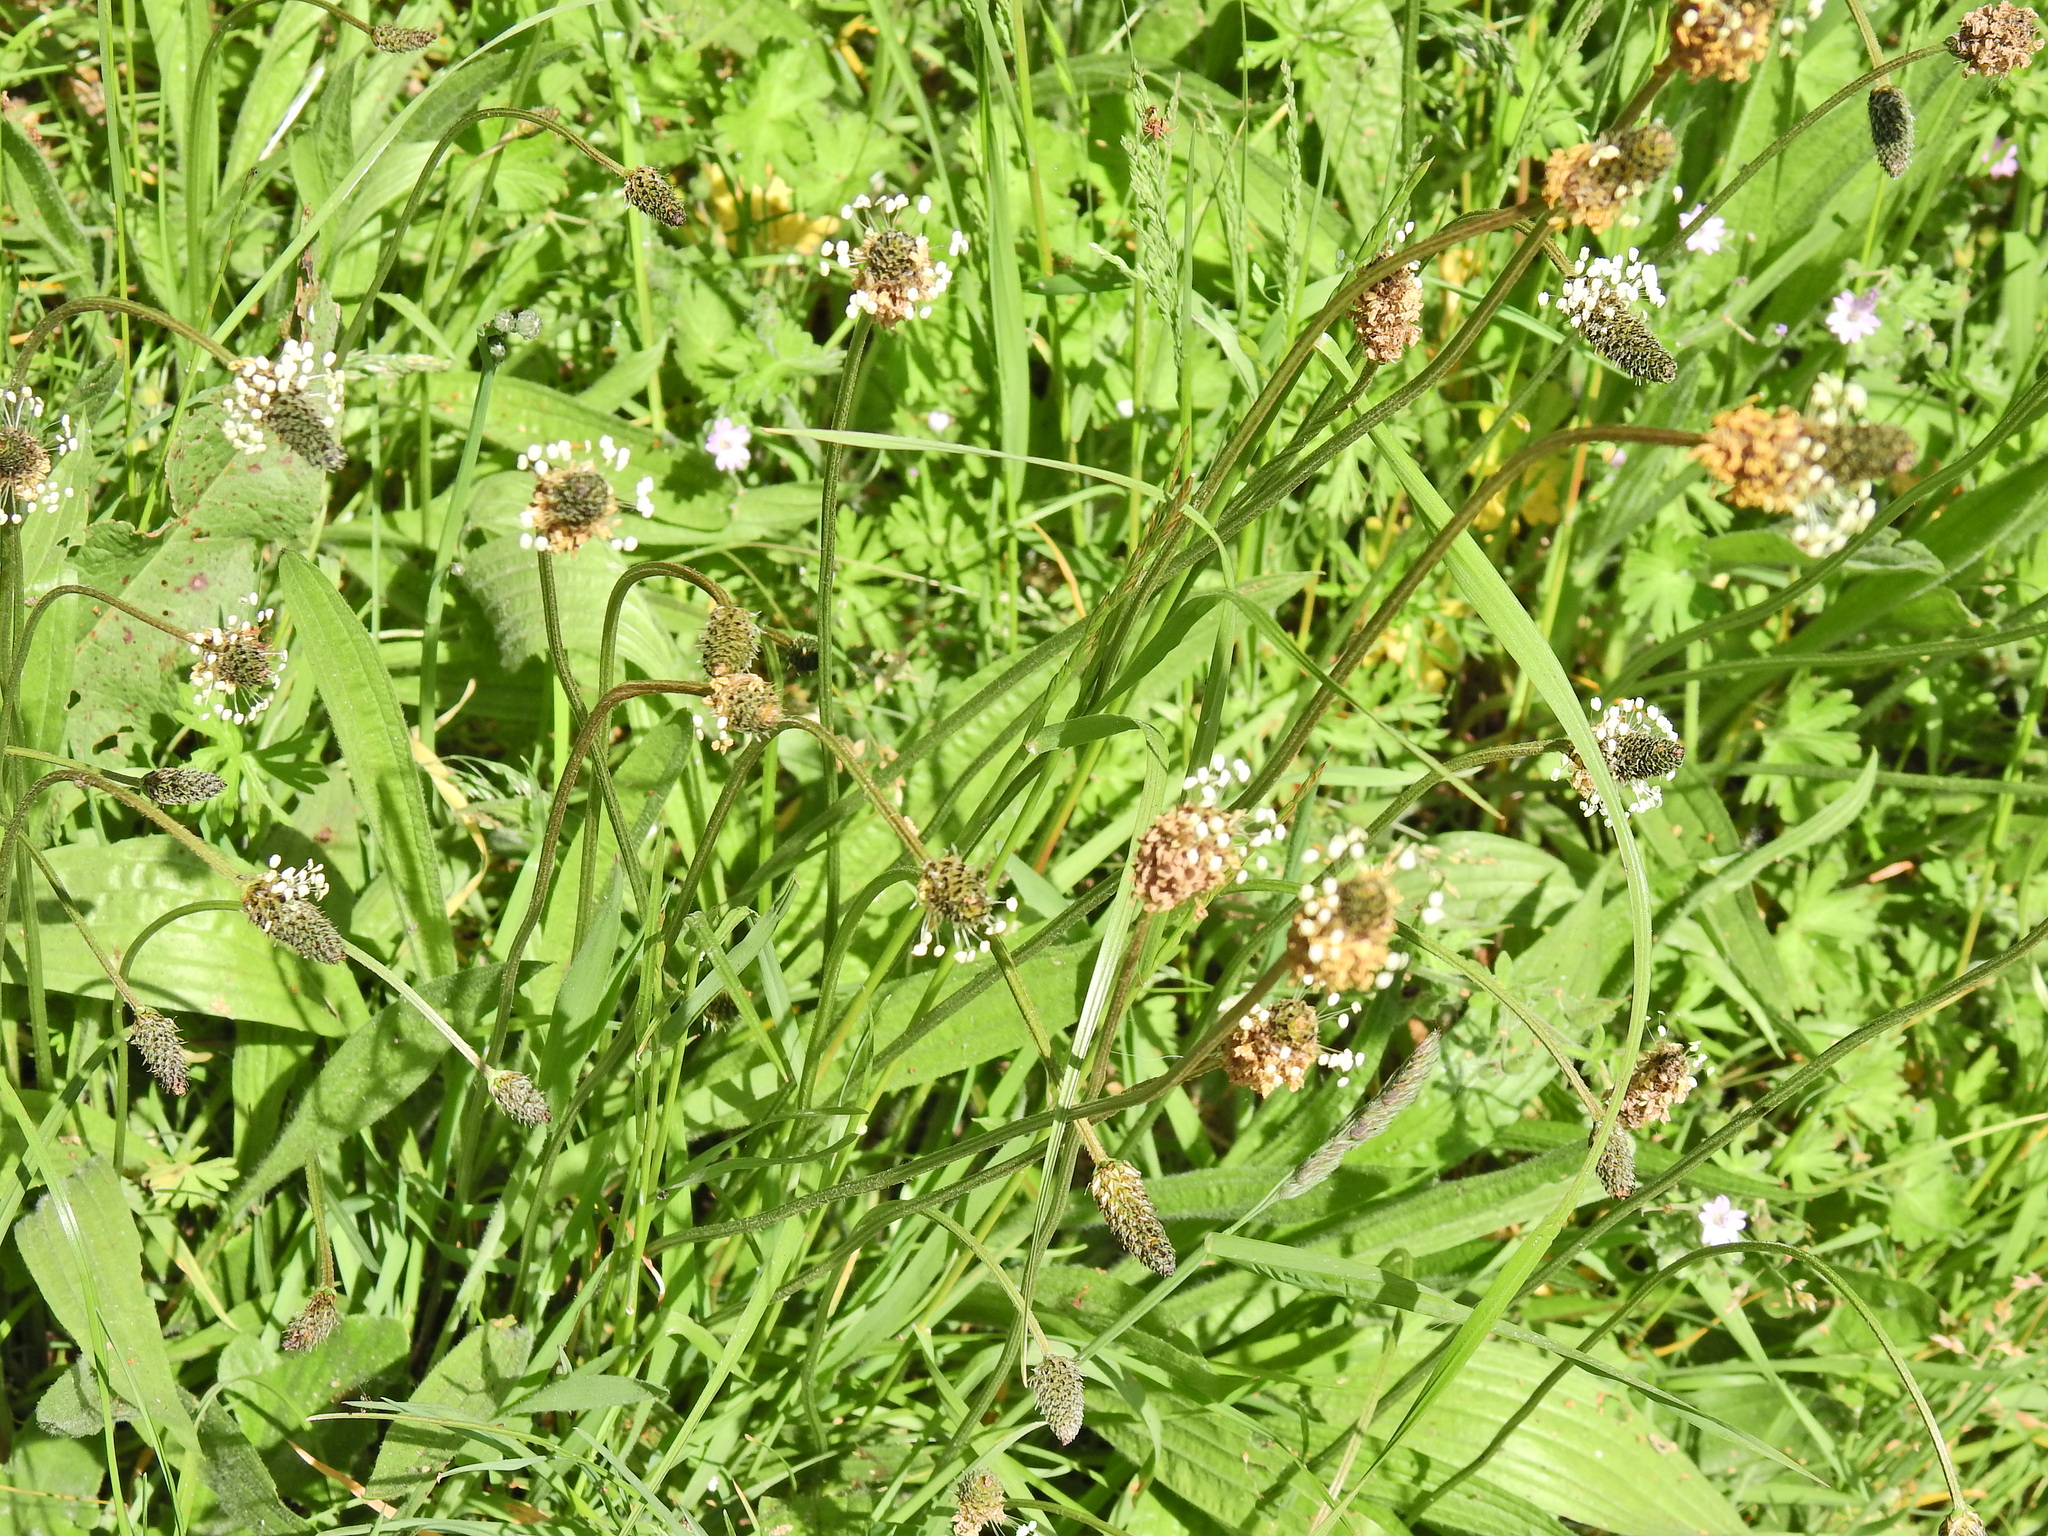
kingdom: Plantae
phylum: Tracheophyta
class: Magnoliopsida
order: Lamiales
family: Plantaginaceae
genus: Plantago
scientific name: Plantago lanceolata
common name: Ribwort plantain
